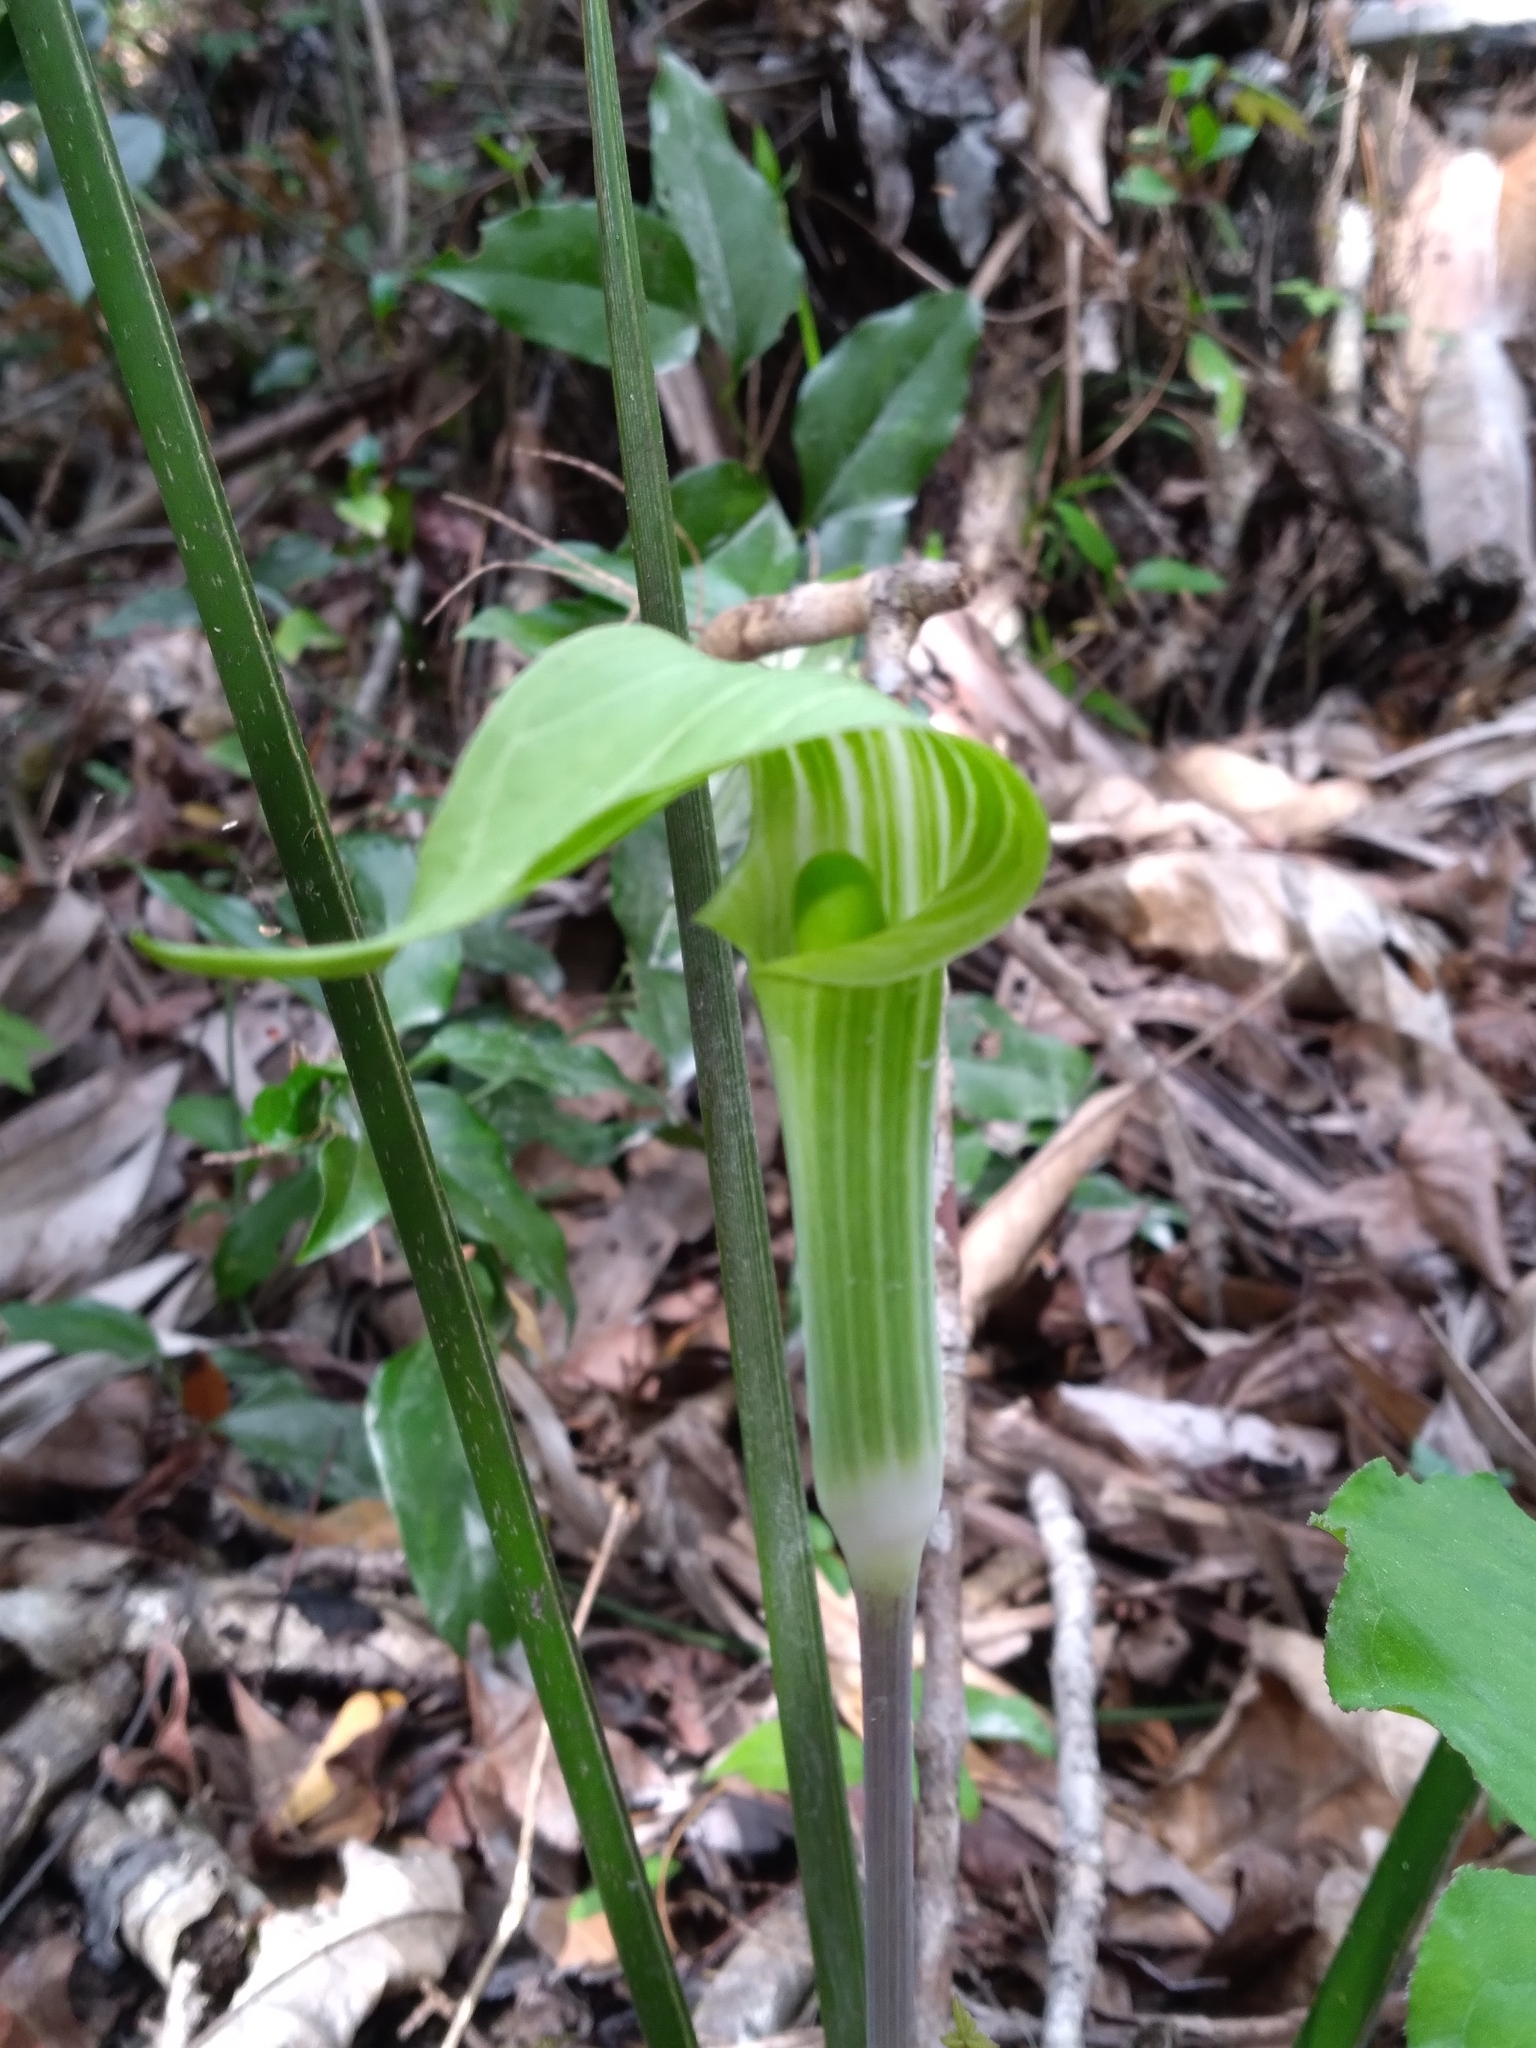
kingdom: Plantae
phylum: Tracheophyta
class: Liliopsida
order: Alismatales
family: Araceae
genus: Arisaema
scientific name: Arisaema acuminatum
